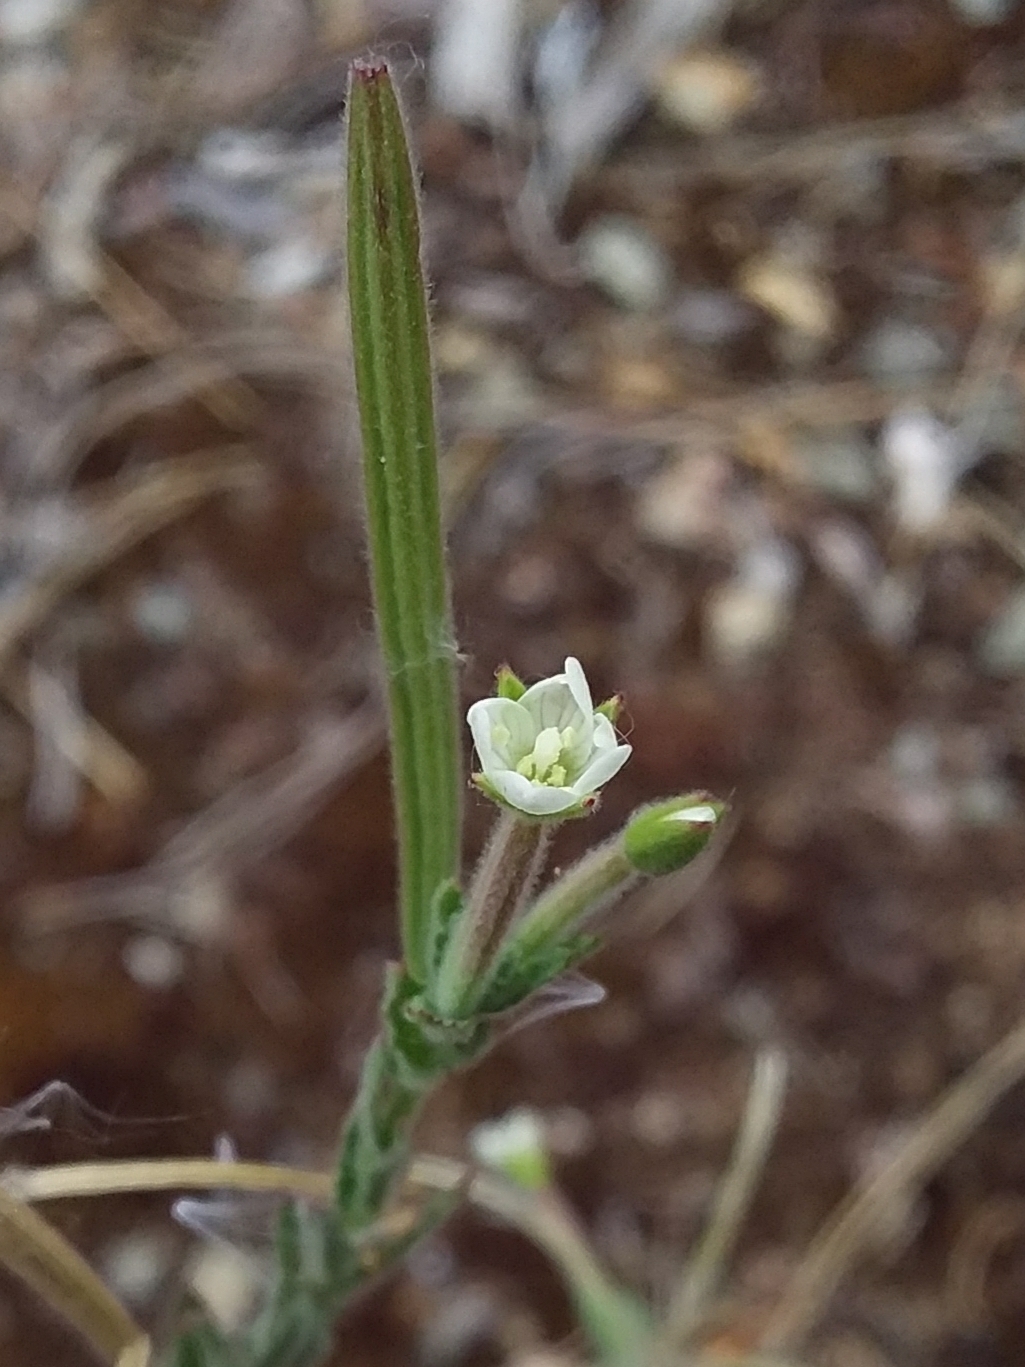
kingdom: Plantae
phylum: Tracheophyta
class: Magnoliopsida
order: Myrtales
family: Onagraceae
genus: Epilobium
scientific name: Epilobium hirtigerum
